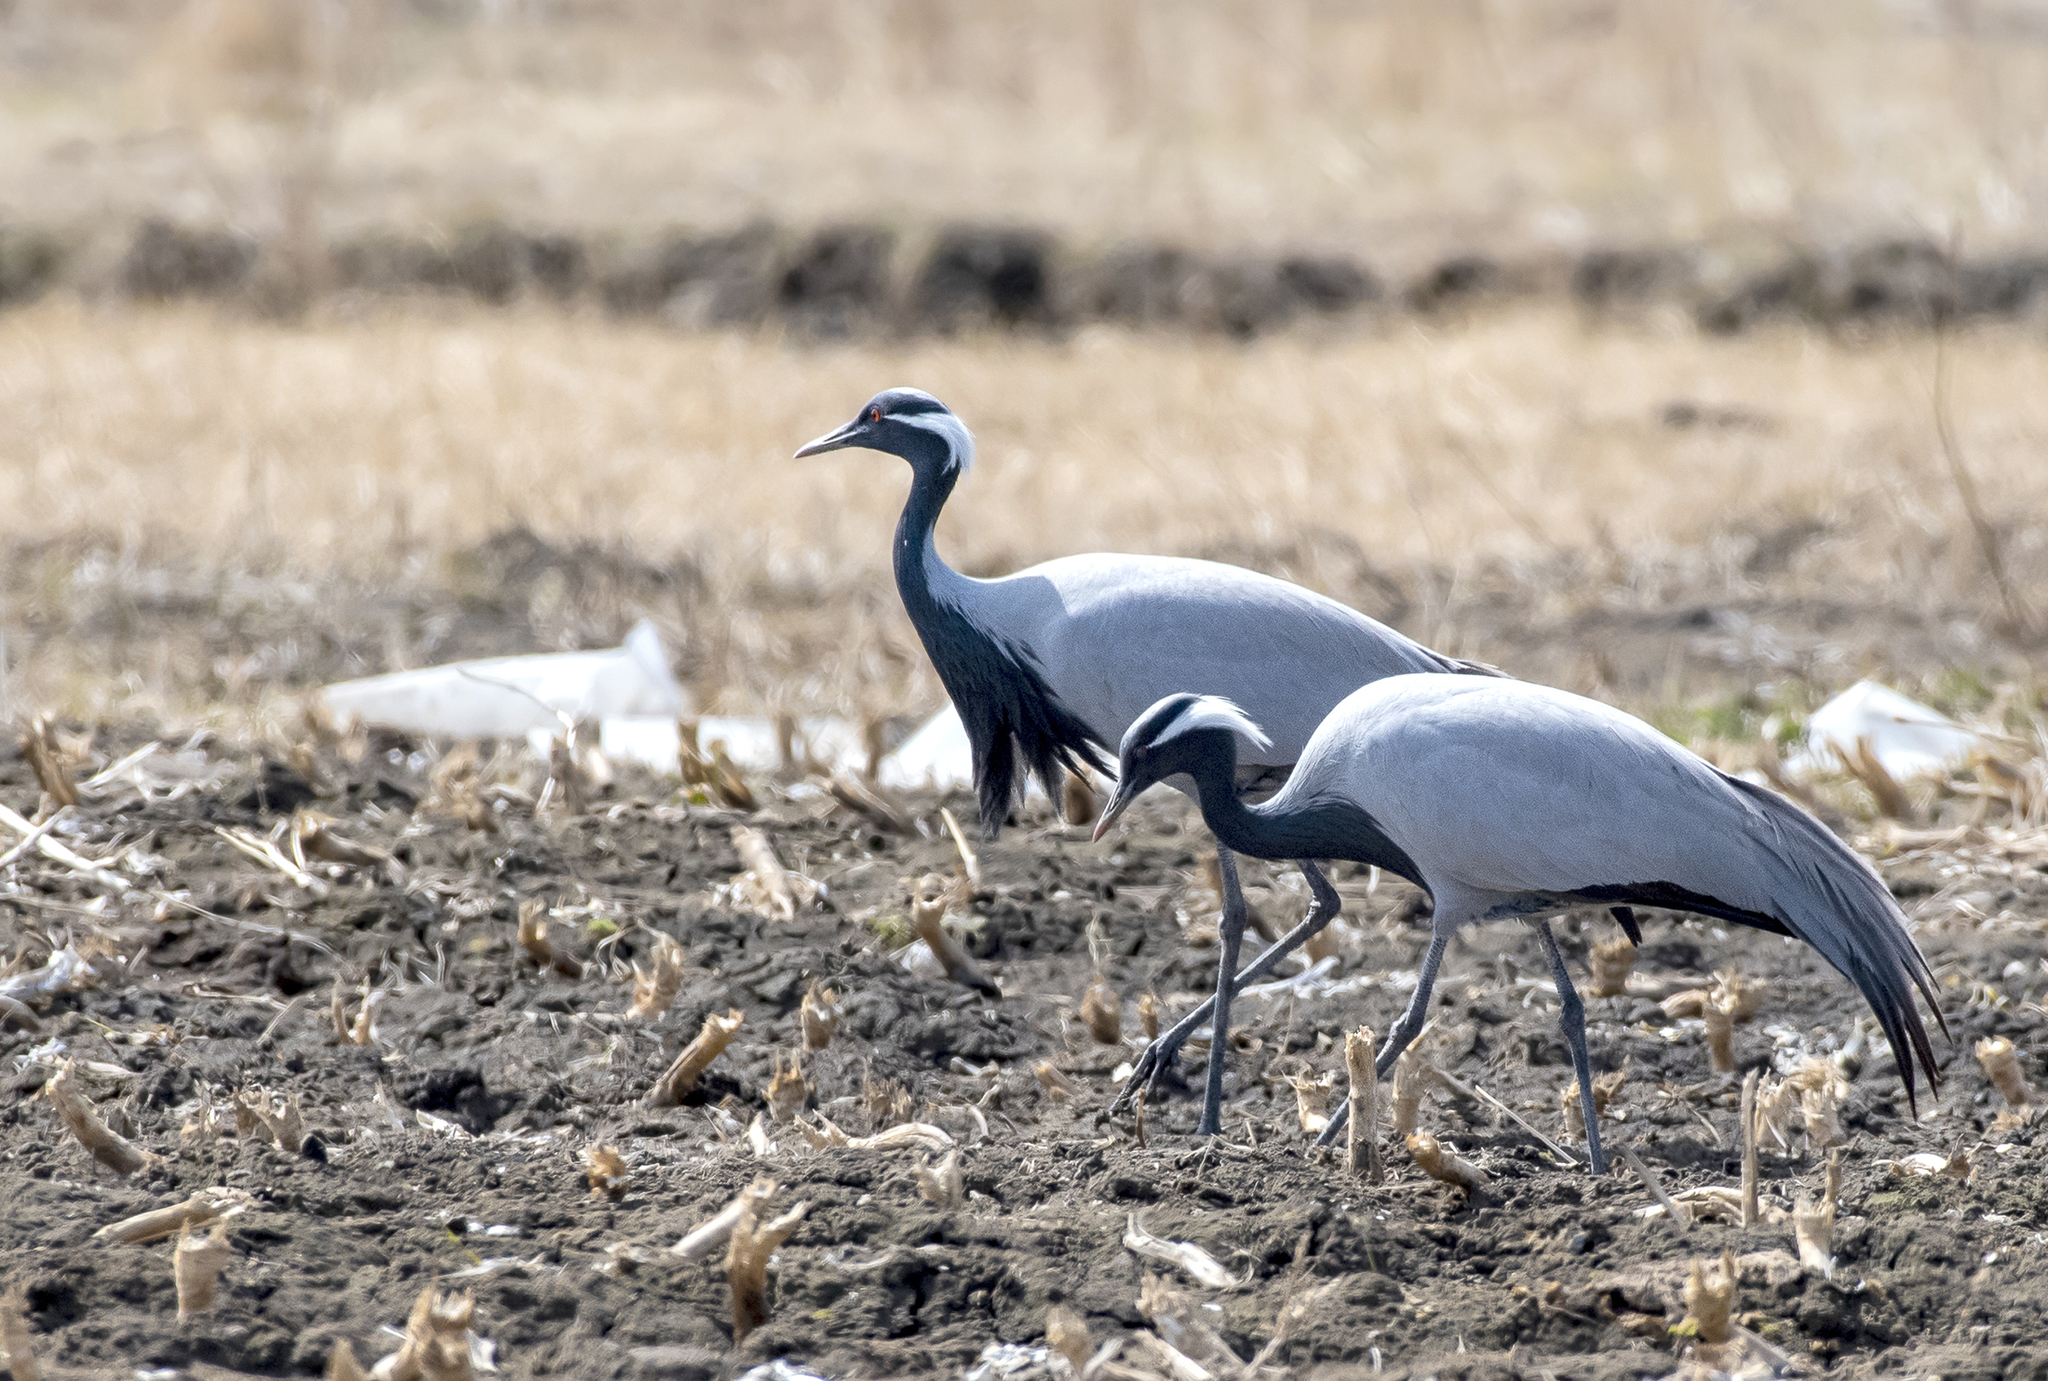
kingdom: Animalia
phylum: Chordata
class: Aves
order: Gruiformes
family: Gruidae
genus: Anthropoides
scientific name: Anthropoides virgo
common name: Demoiselle crane
